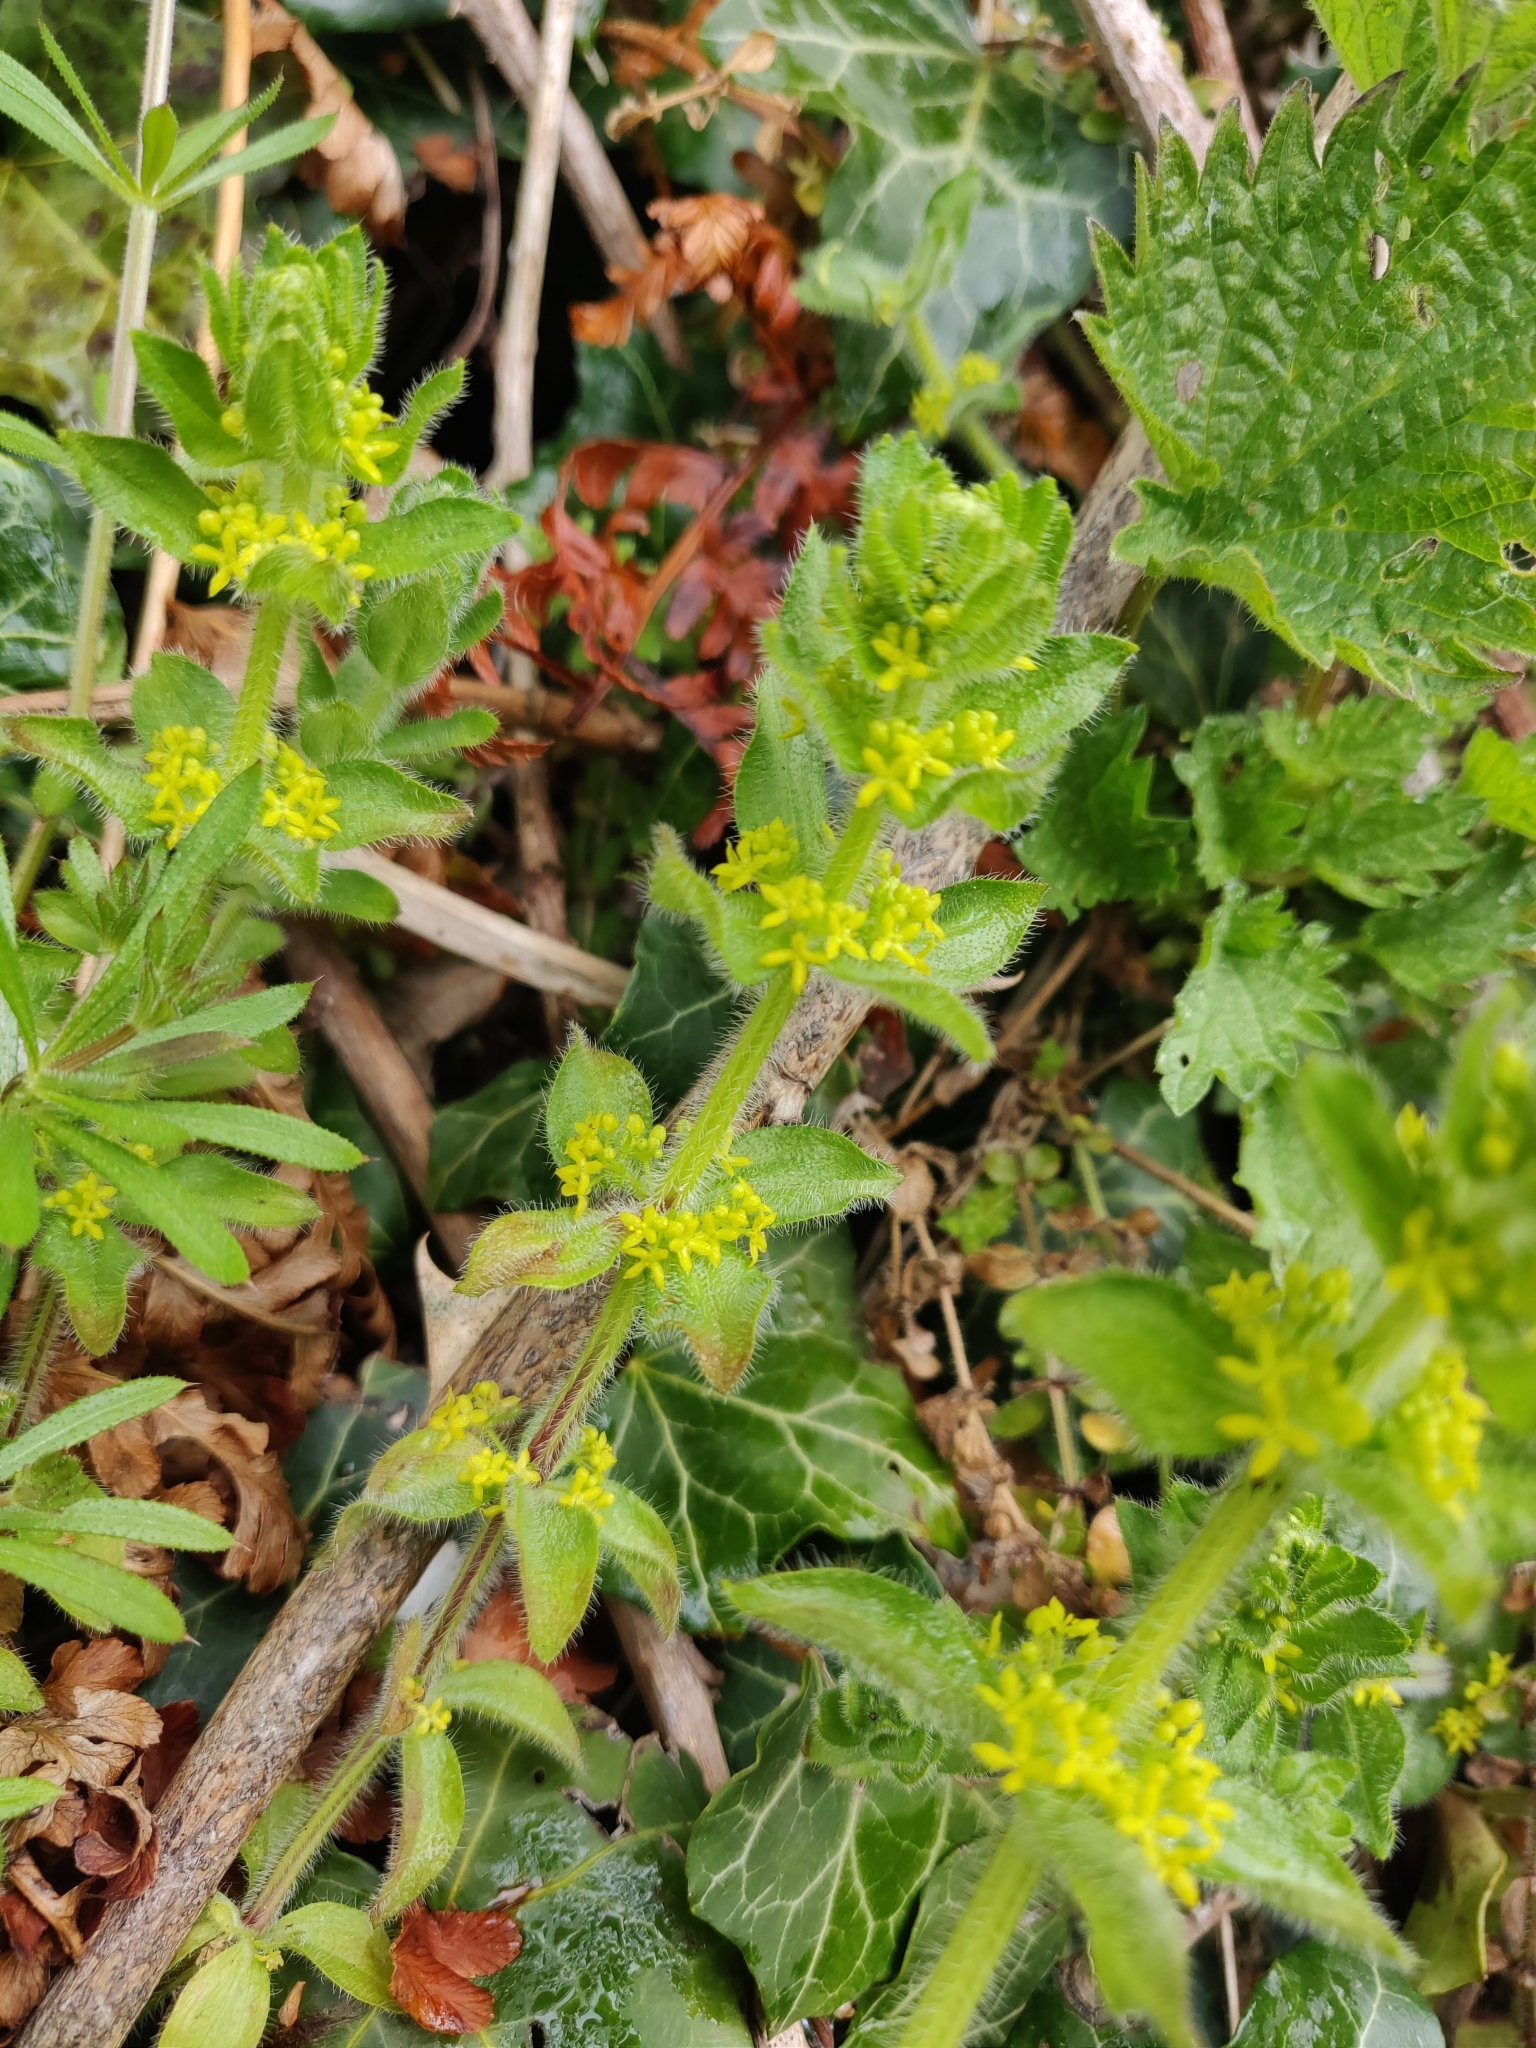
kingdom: Plantae
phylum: Tracheophyta
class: Magnoliopsida
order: Gentianales
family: Rubiaceae
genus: Cruciata
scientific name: Cruciata laevipes
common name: Crosswort
